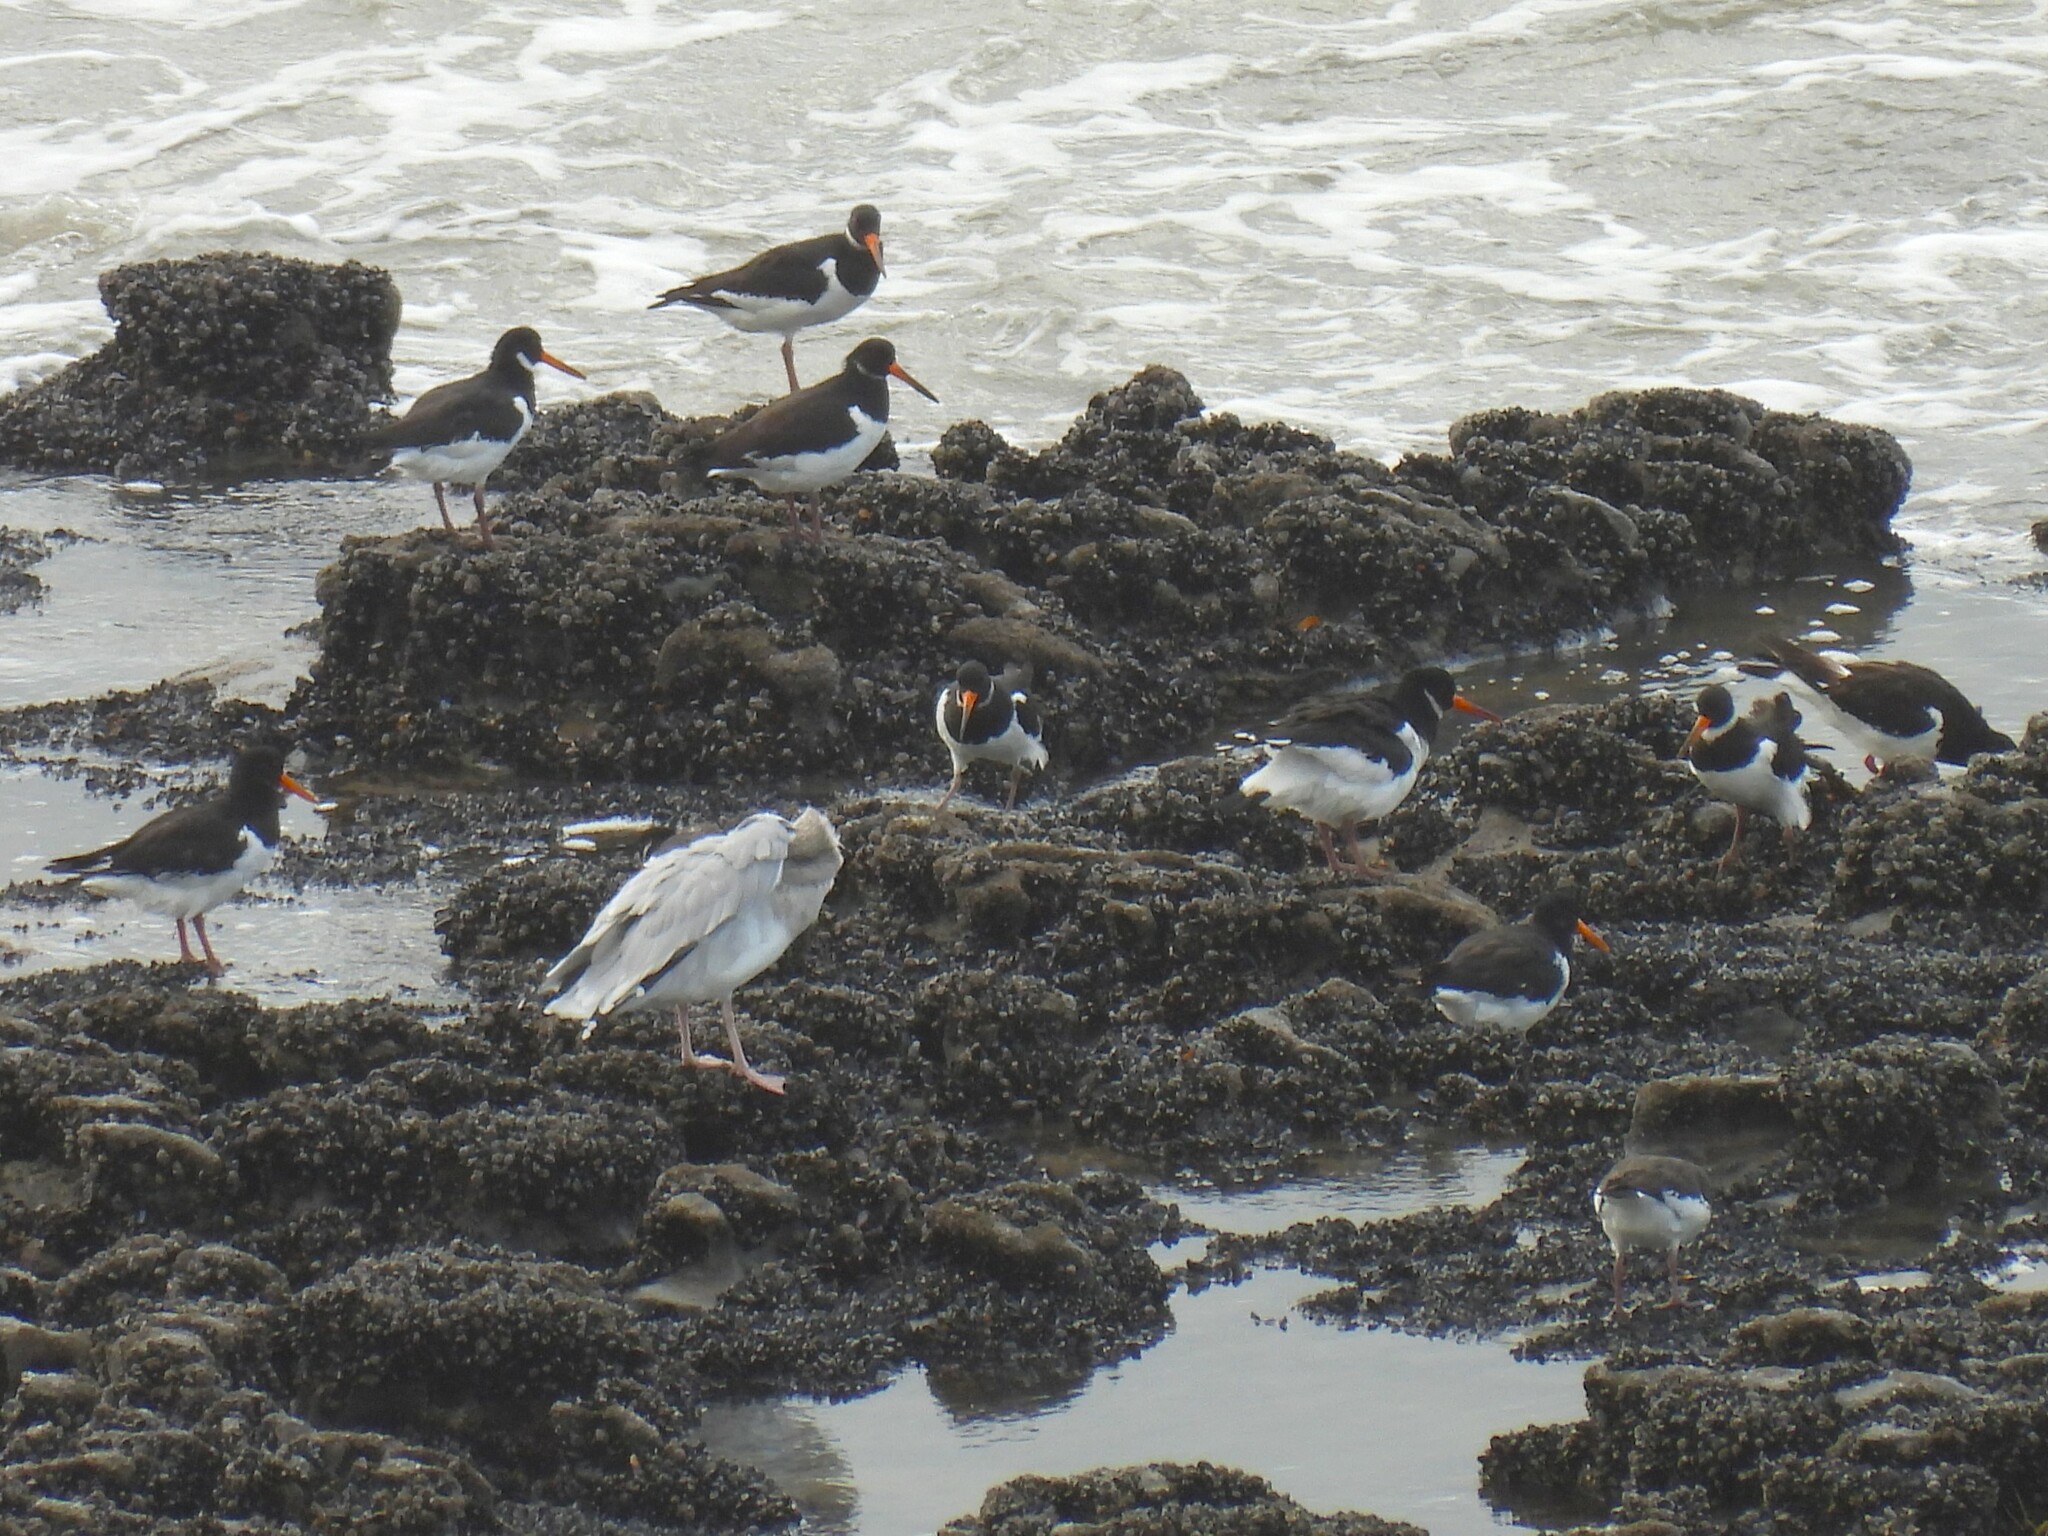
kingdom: Animalia
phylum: Chordata
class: Aves
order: Charadriiformes
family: Haematopodidae
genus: Haematopus
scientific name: Haematopus ostralegus
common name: Eurasian oystercatcher
